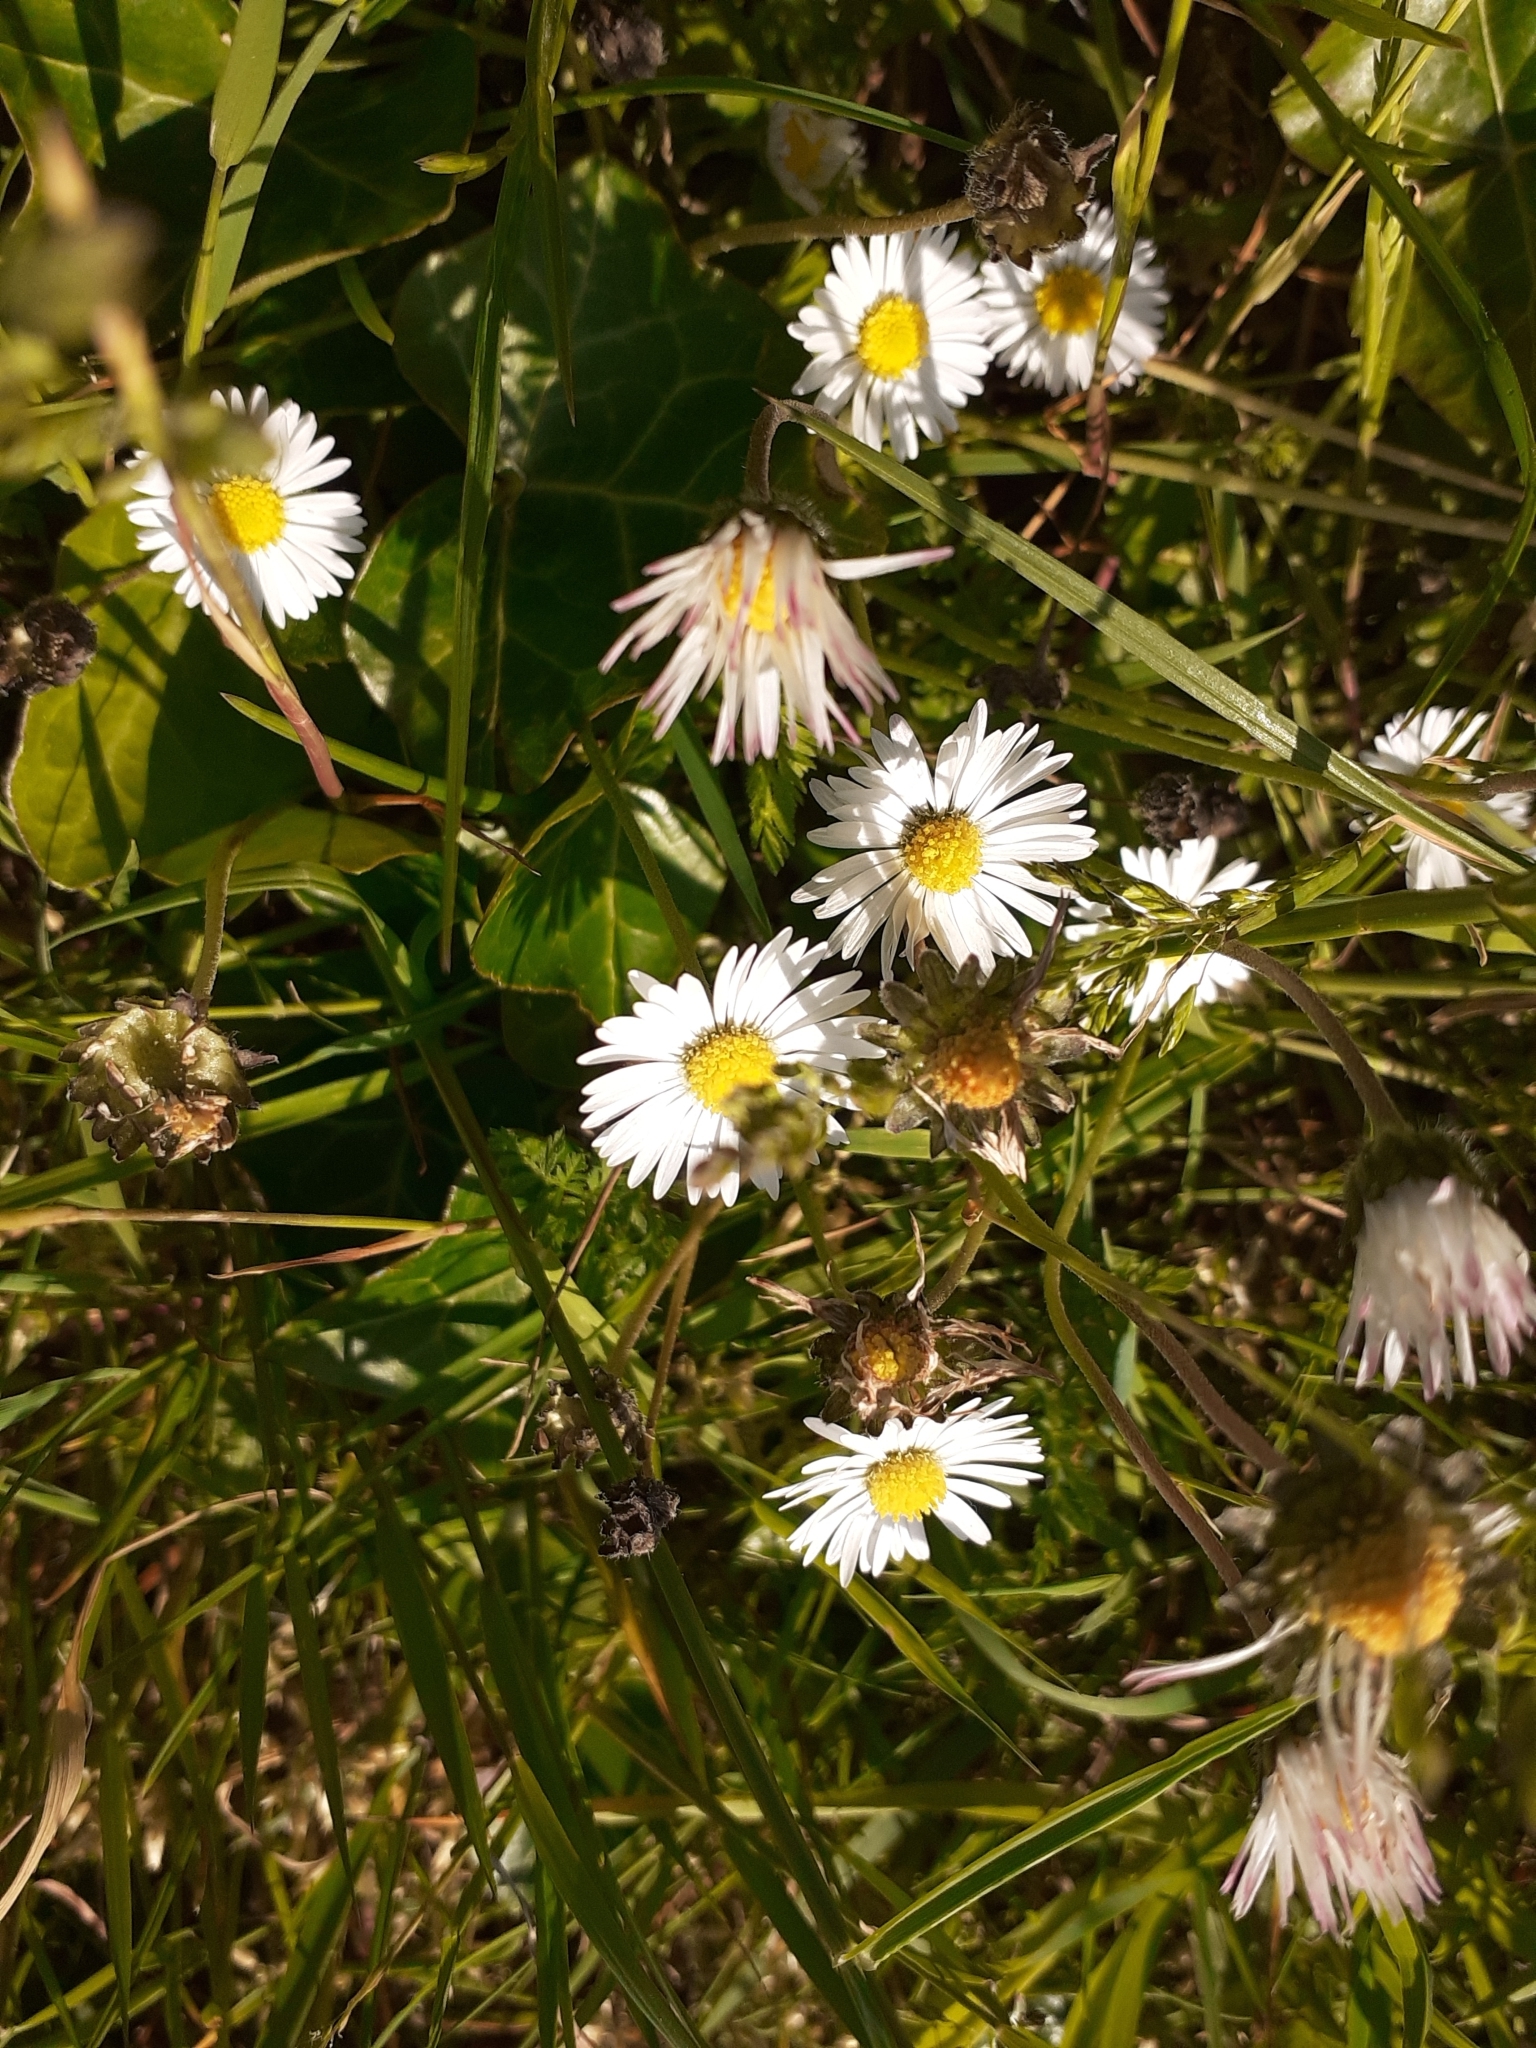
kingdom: Plantae
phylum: Tracheophyta
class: Magnoliopsida
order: Asterales
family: Asteraceae
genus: Bellis
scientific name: Bellis perennis
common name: Lawndaisy
